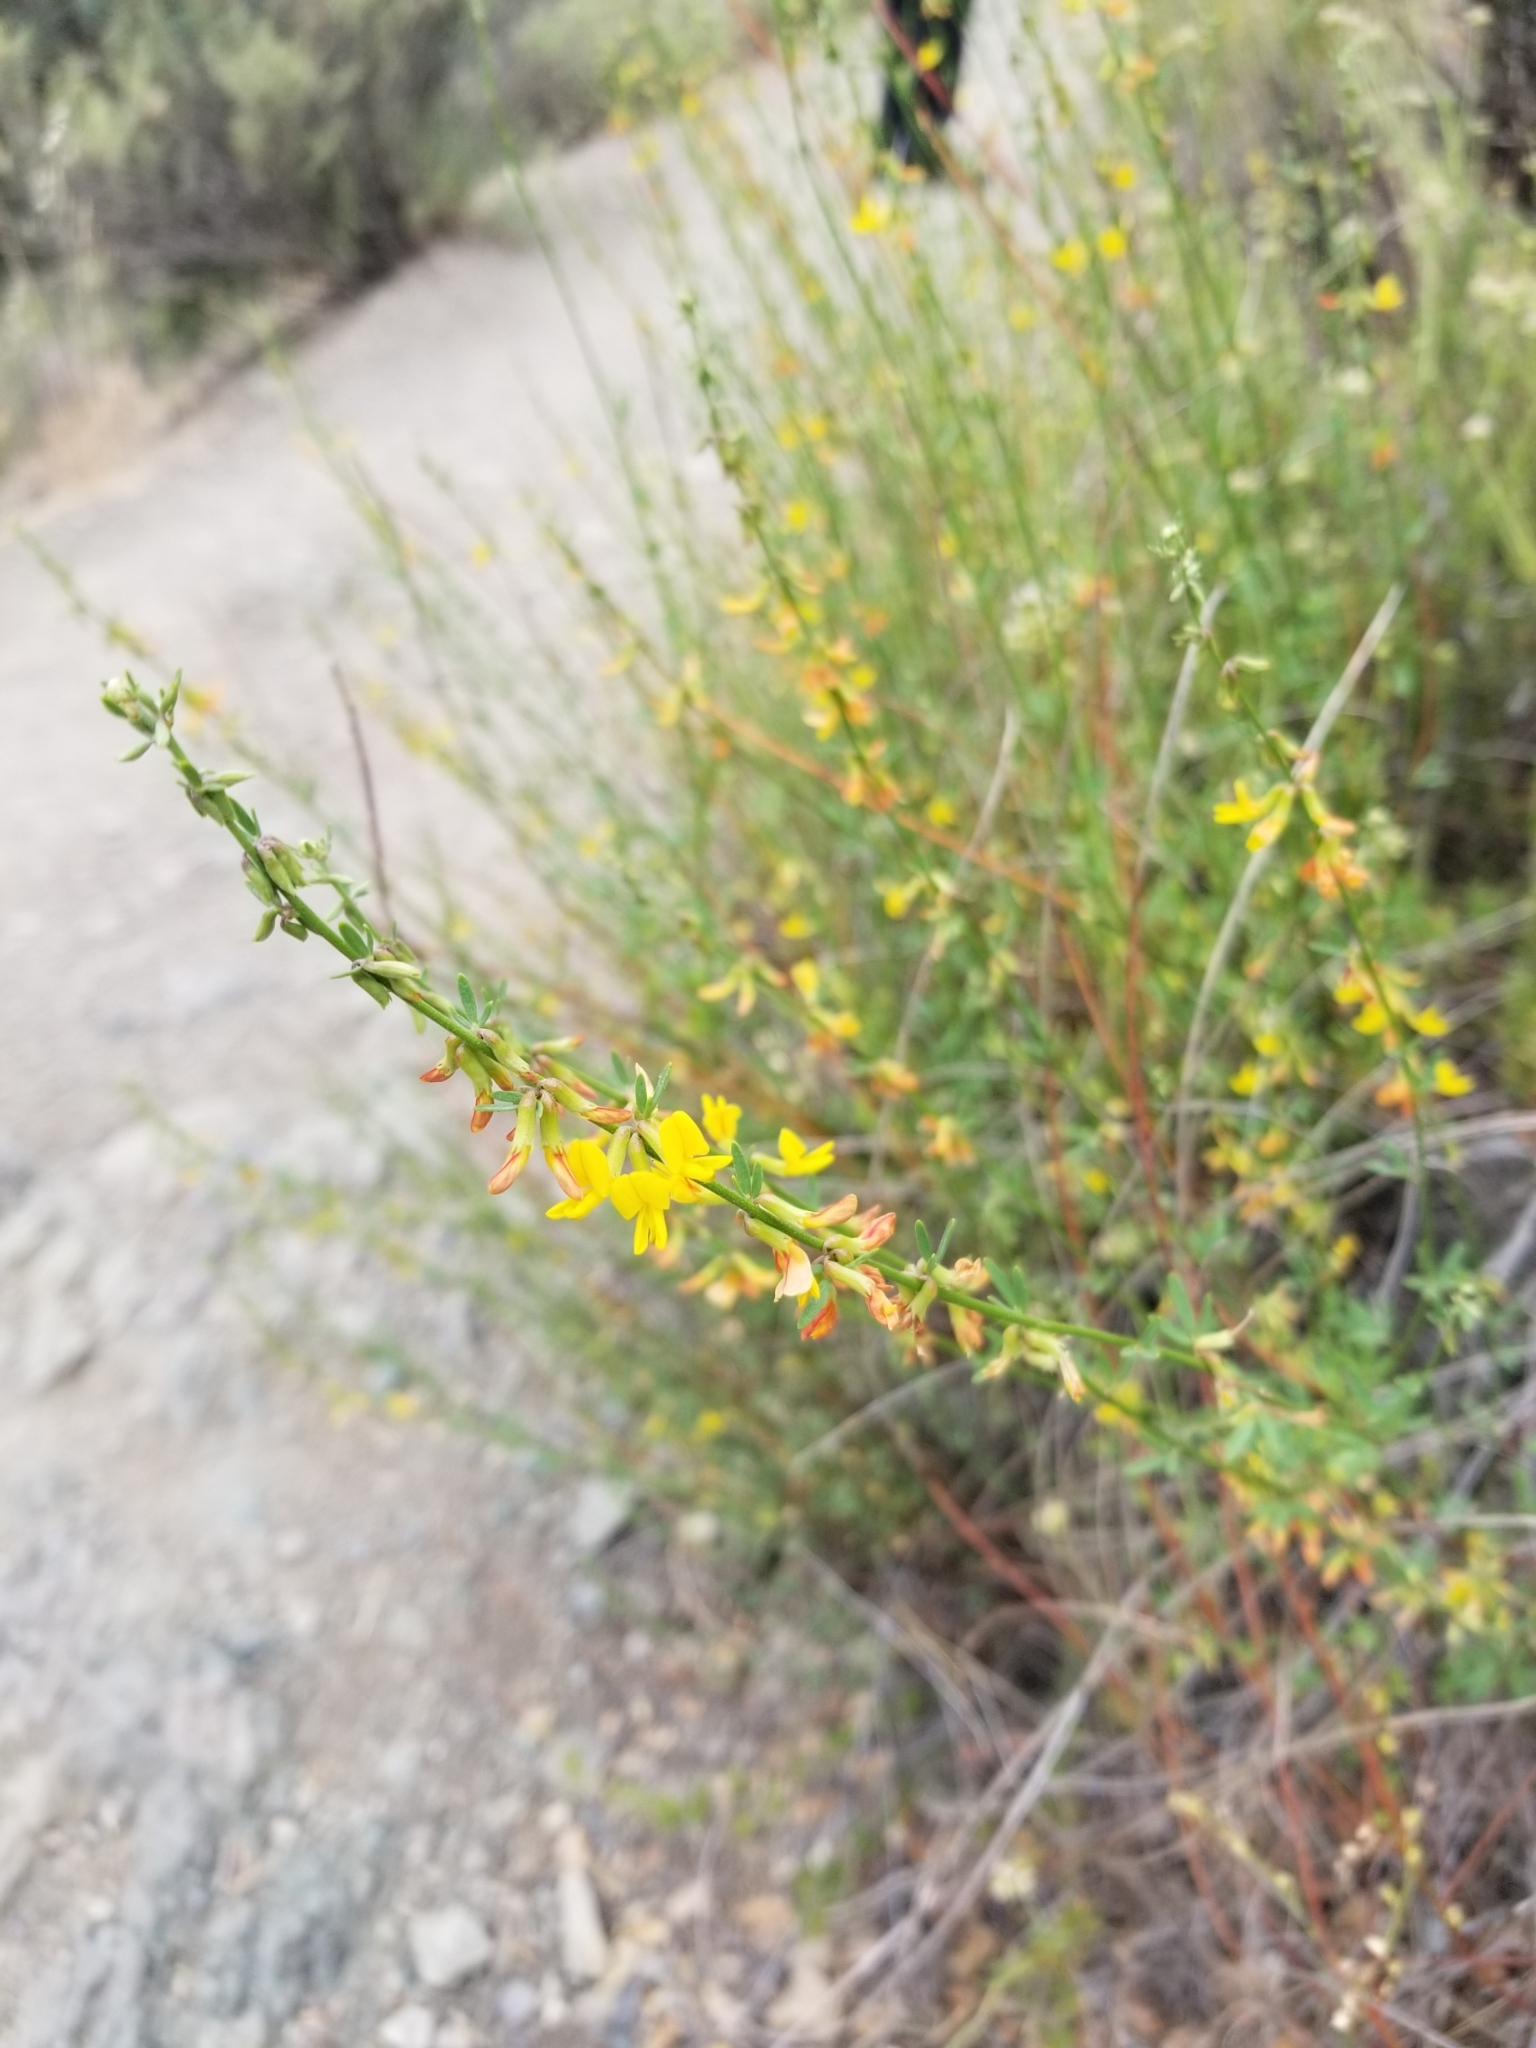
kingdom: Plantae
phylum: Tracheophyta
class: Magnoliopsida
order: Fabales
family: Fabaceae
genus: Acmispon
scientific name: Acmispon glaber
